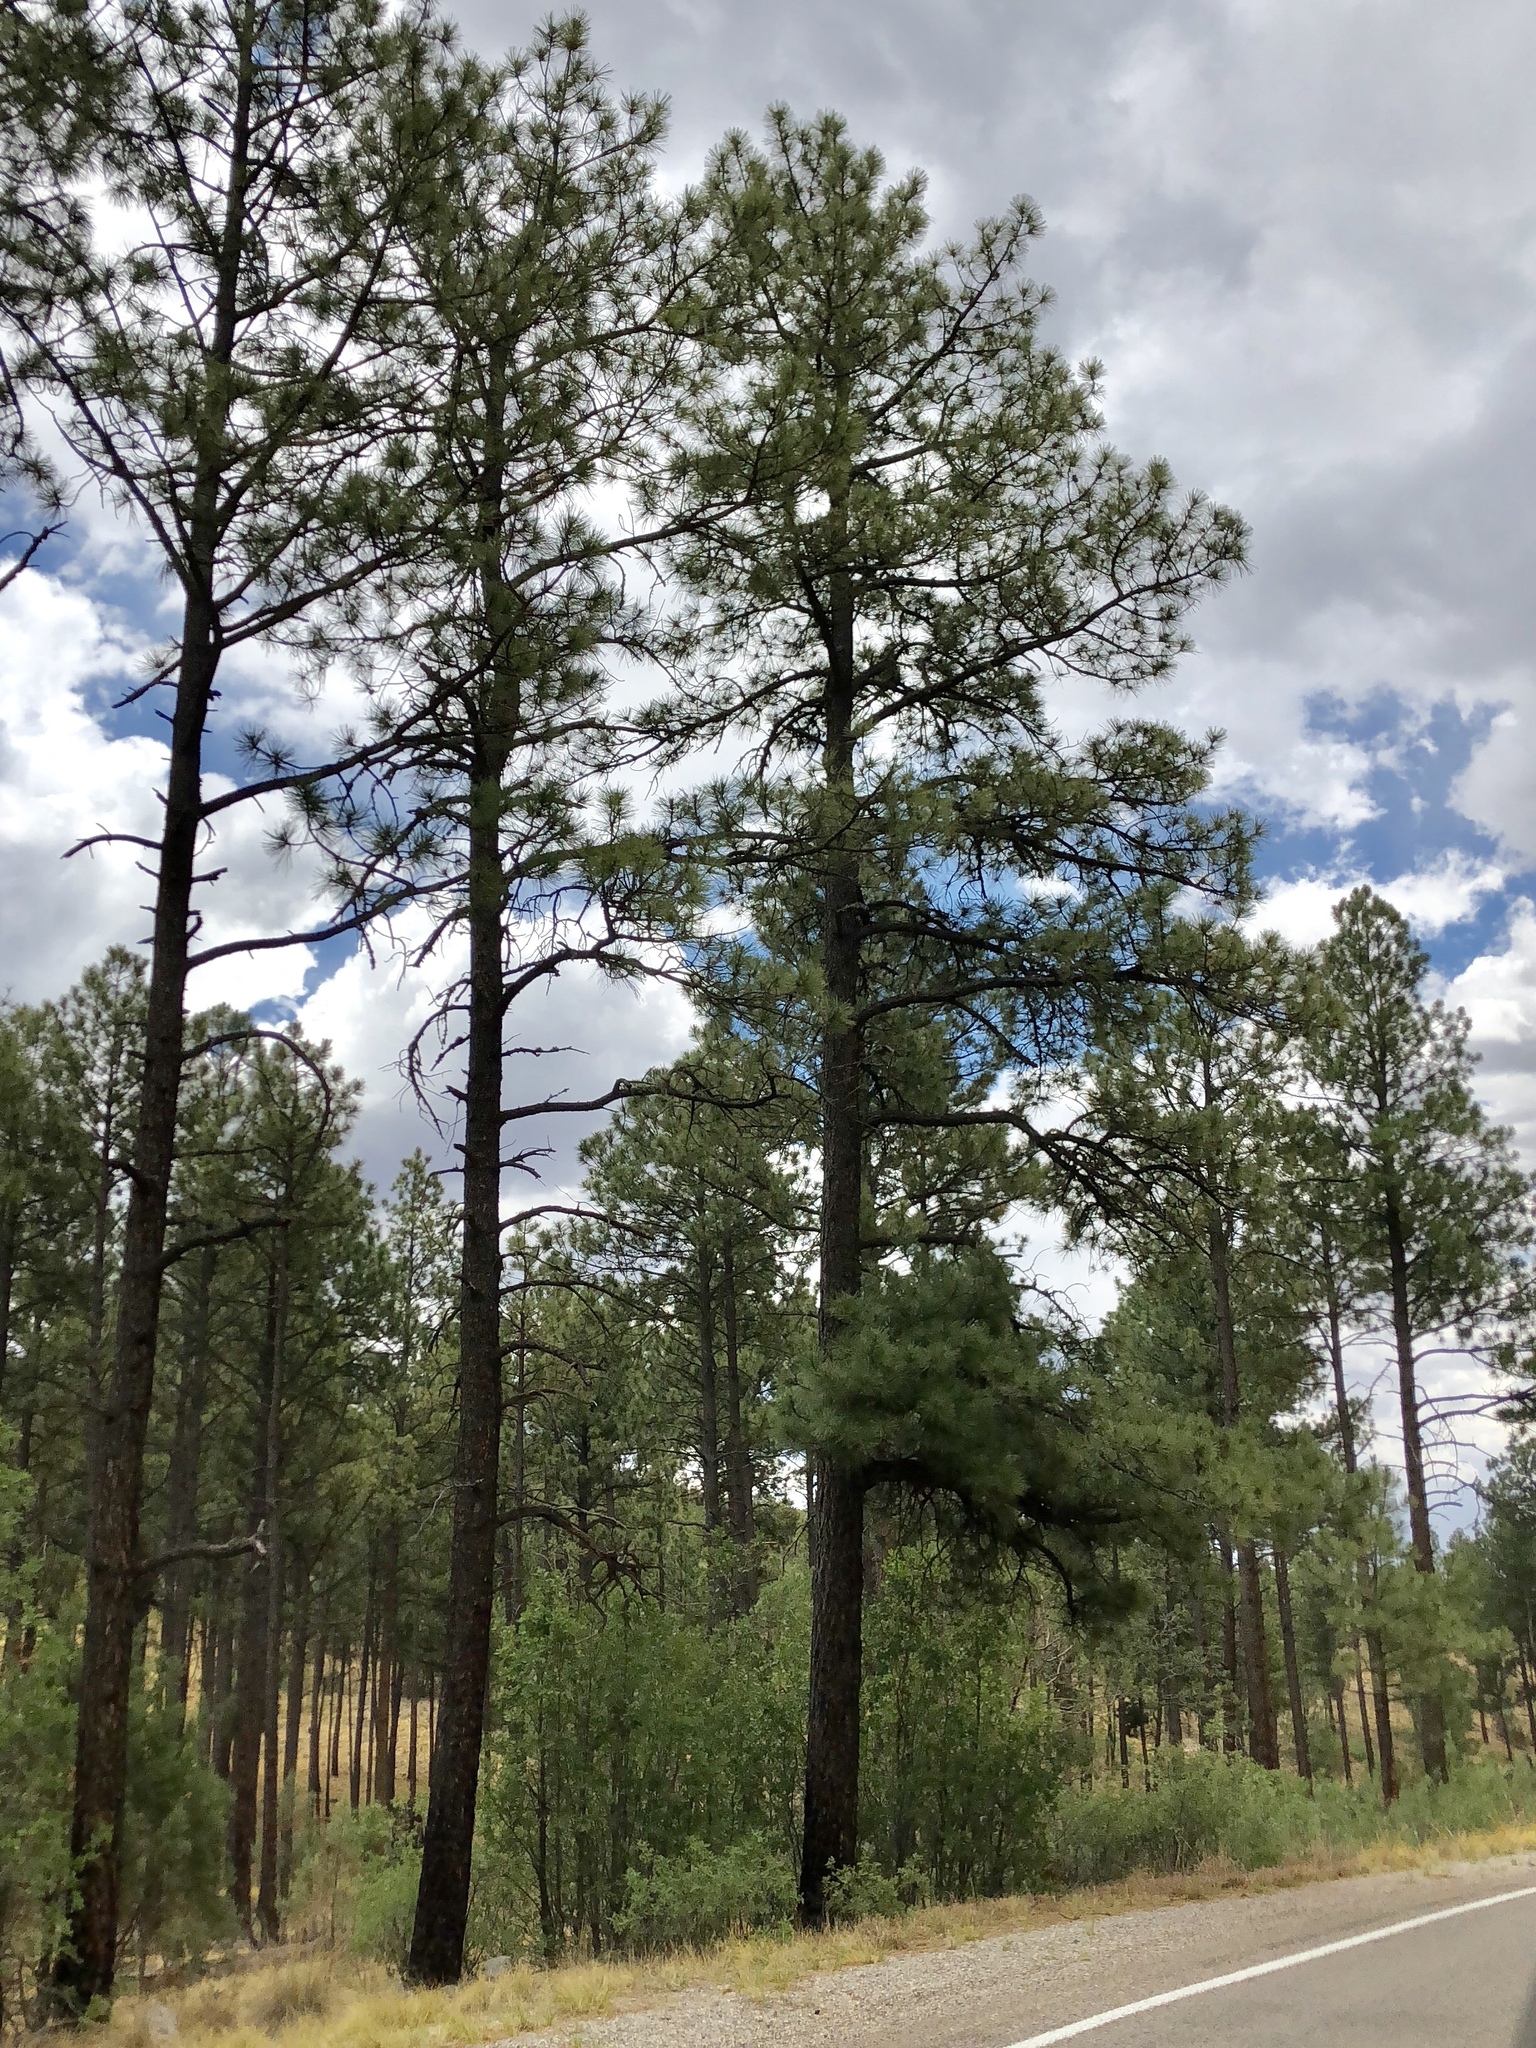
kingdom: Plantae
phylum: Tracheophyta
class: Pinopsida
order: Pinales
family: Pinaceae
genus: Pinus
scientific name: Pinus ponderosa
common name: Western yellow-pine
